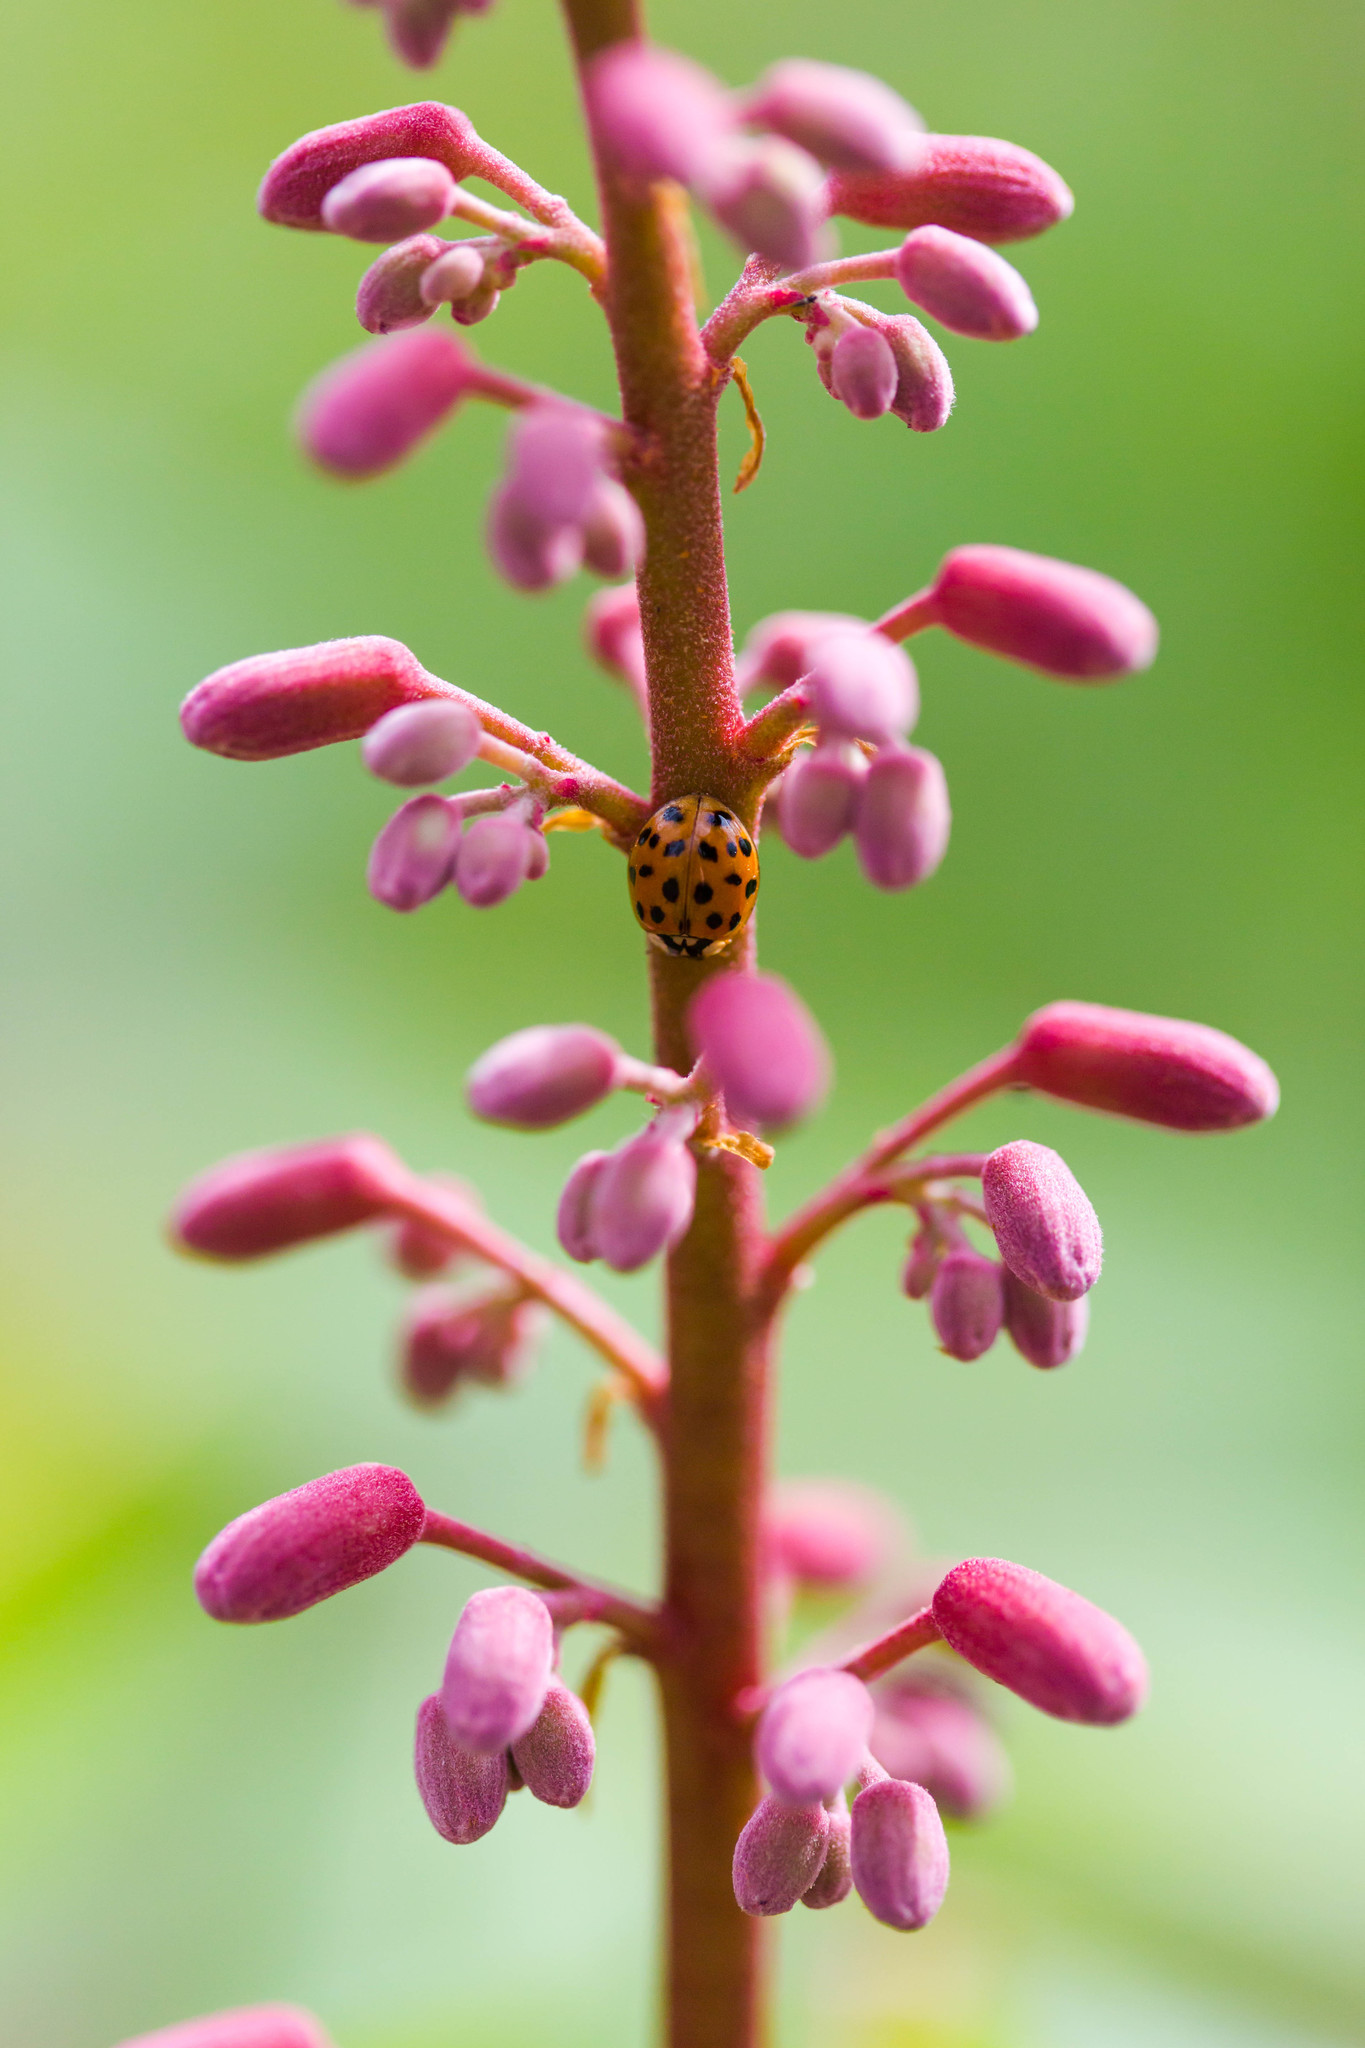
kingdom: Animalia
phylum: Arthropoda
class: Insecta
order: Coleoptera
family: Coccinellidae
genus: Harmonia
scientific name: Harmonia axyridis
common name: Harlequin ladybird
